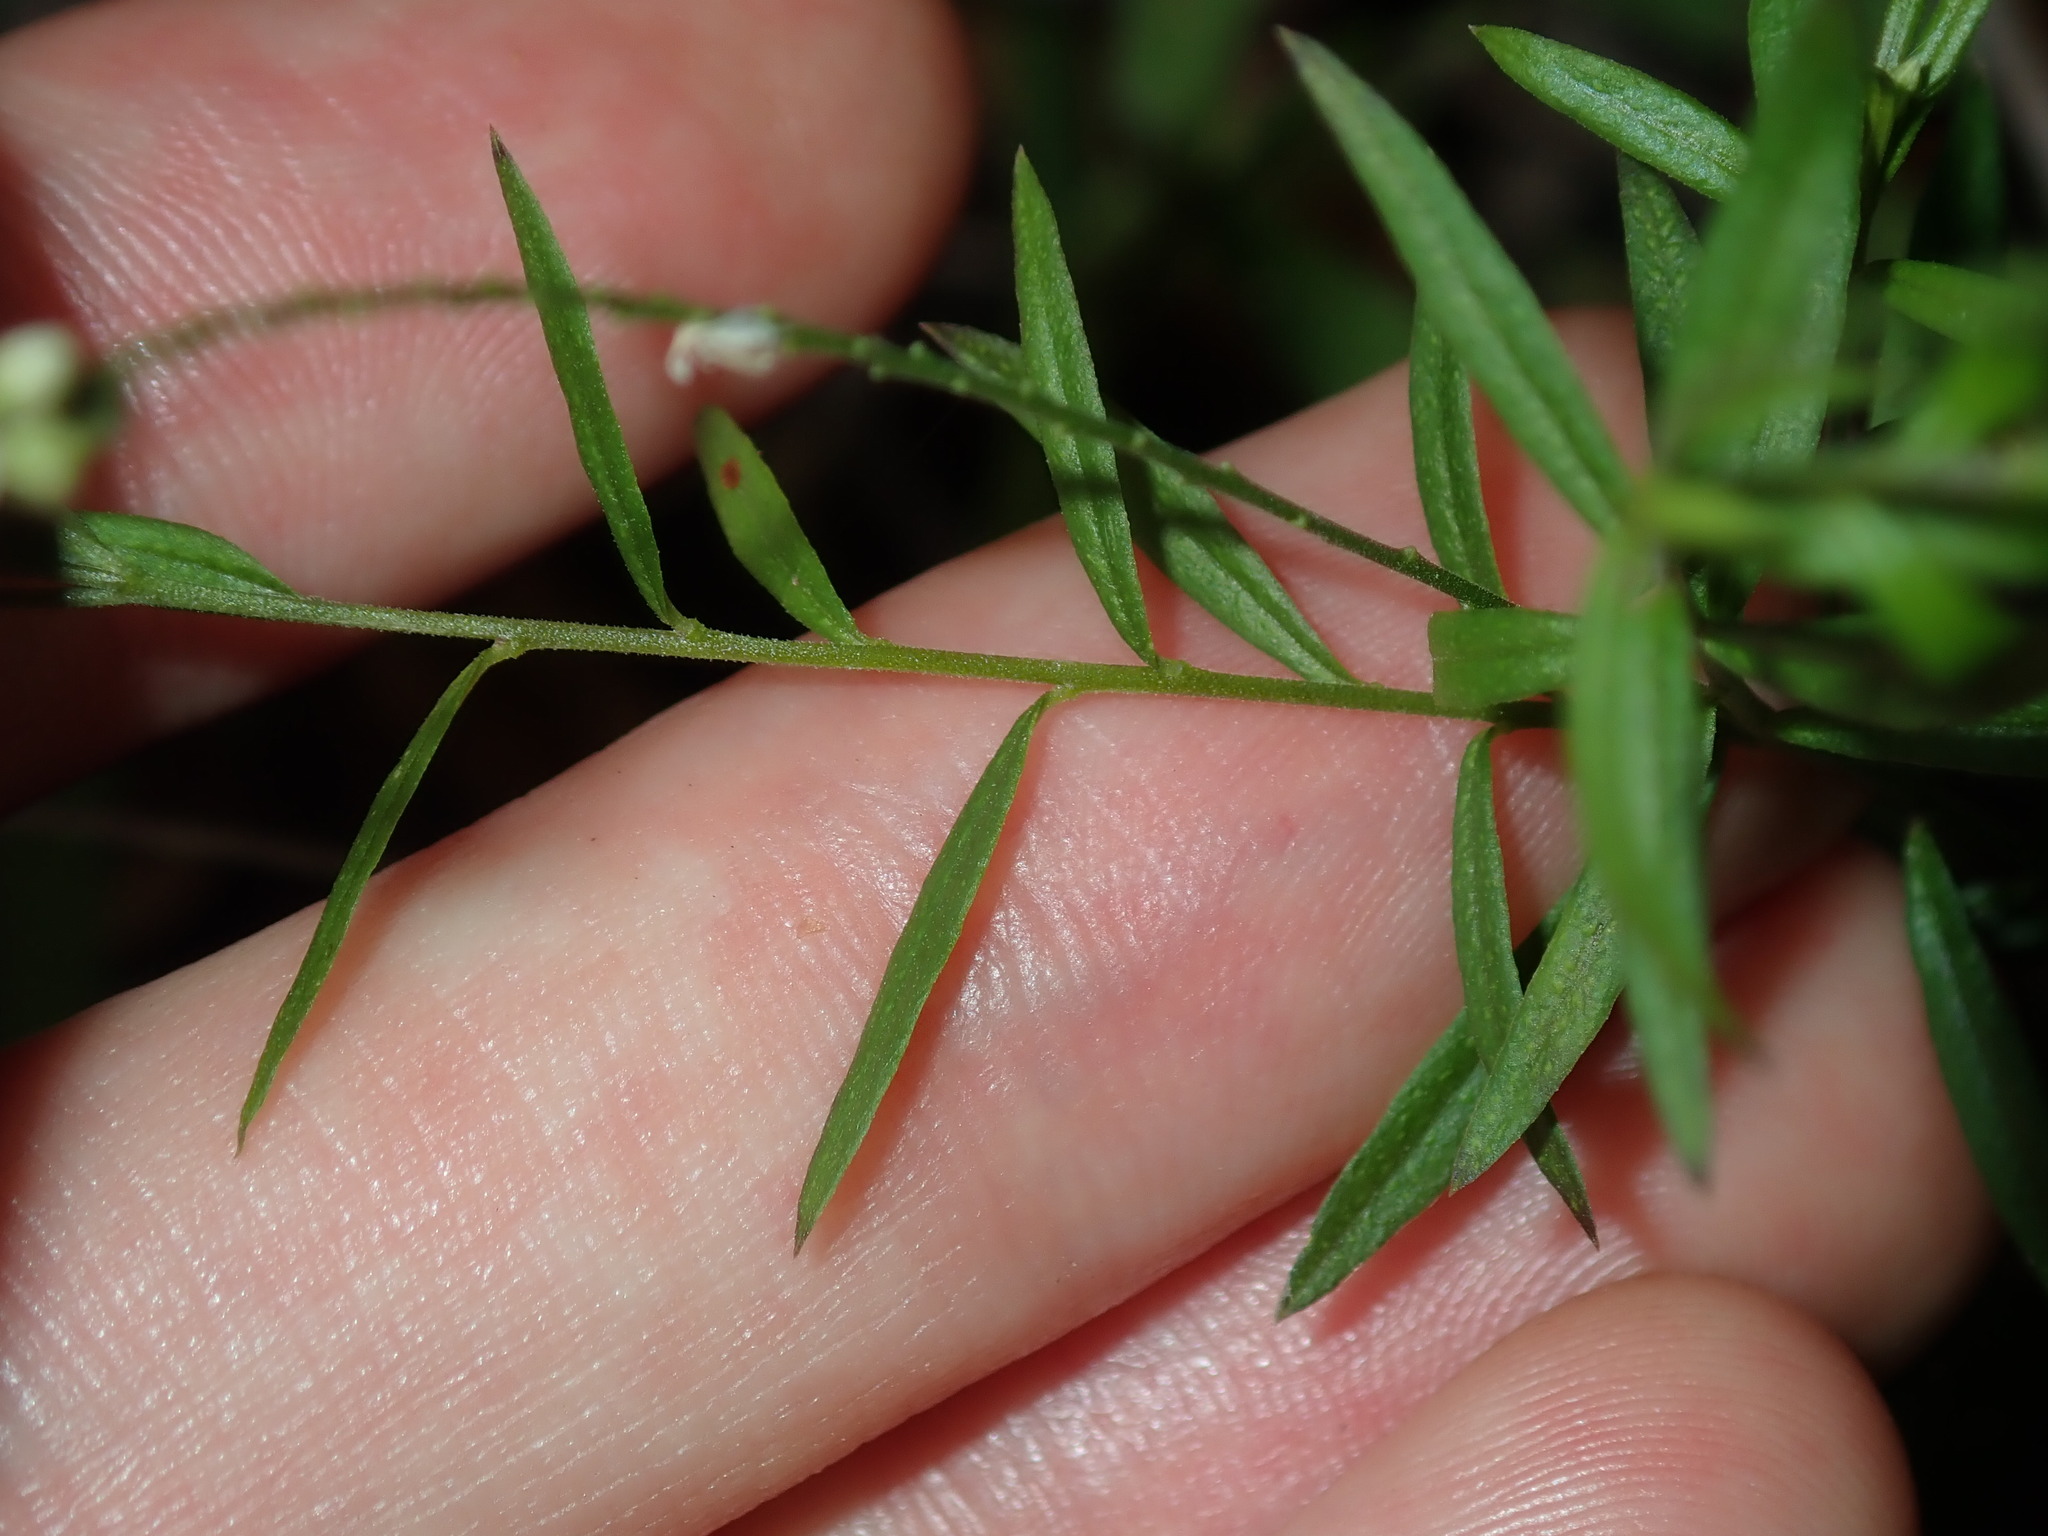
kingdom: Plantae
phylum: Tracheophyta
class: Magnoliopsida
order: Fabales
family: Polygalaceae
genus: Polygala
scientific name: Polygala paniculata
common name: Orosne
